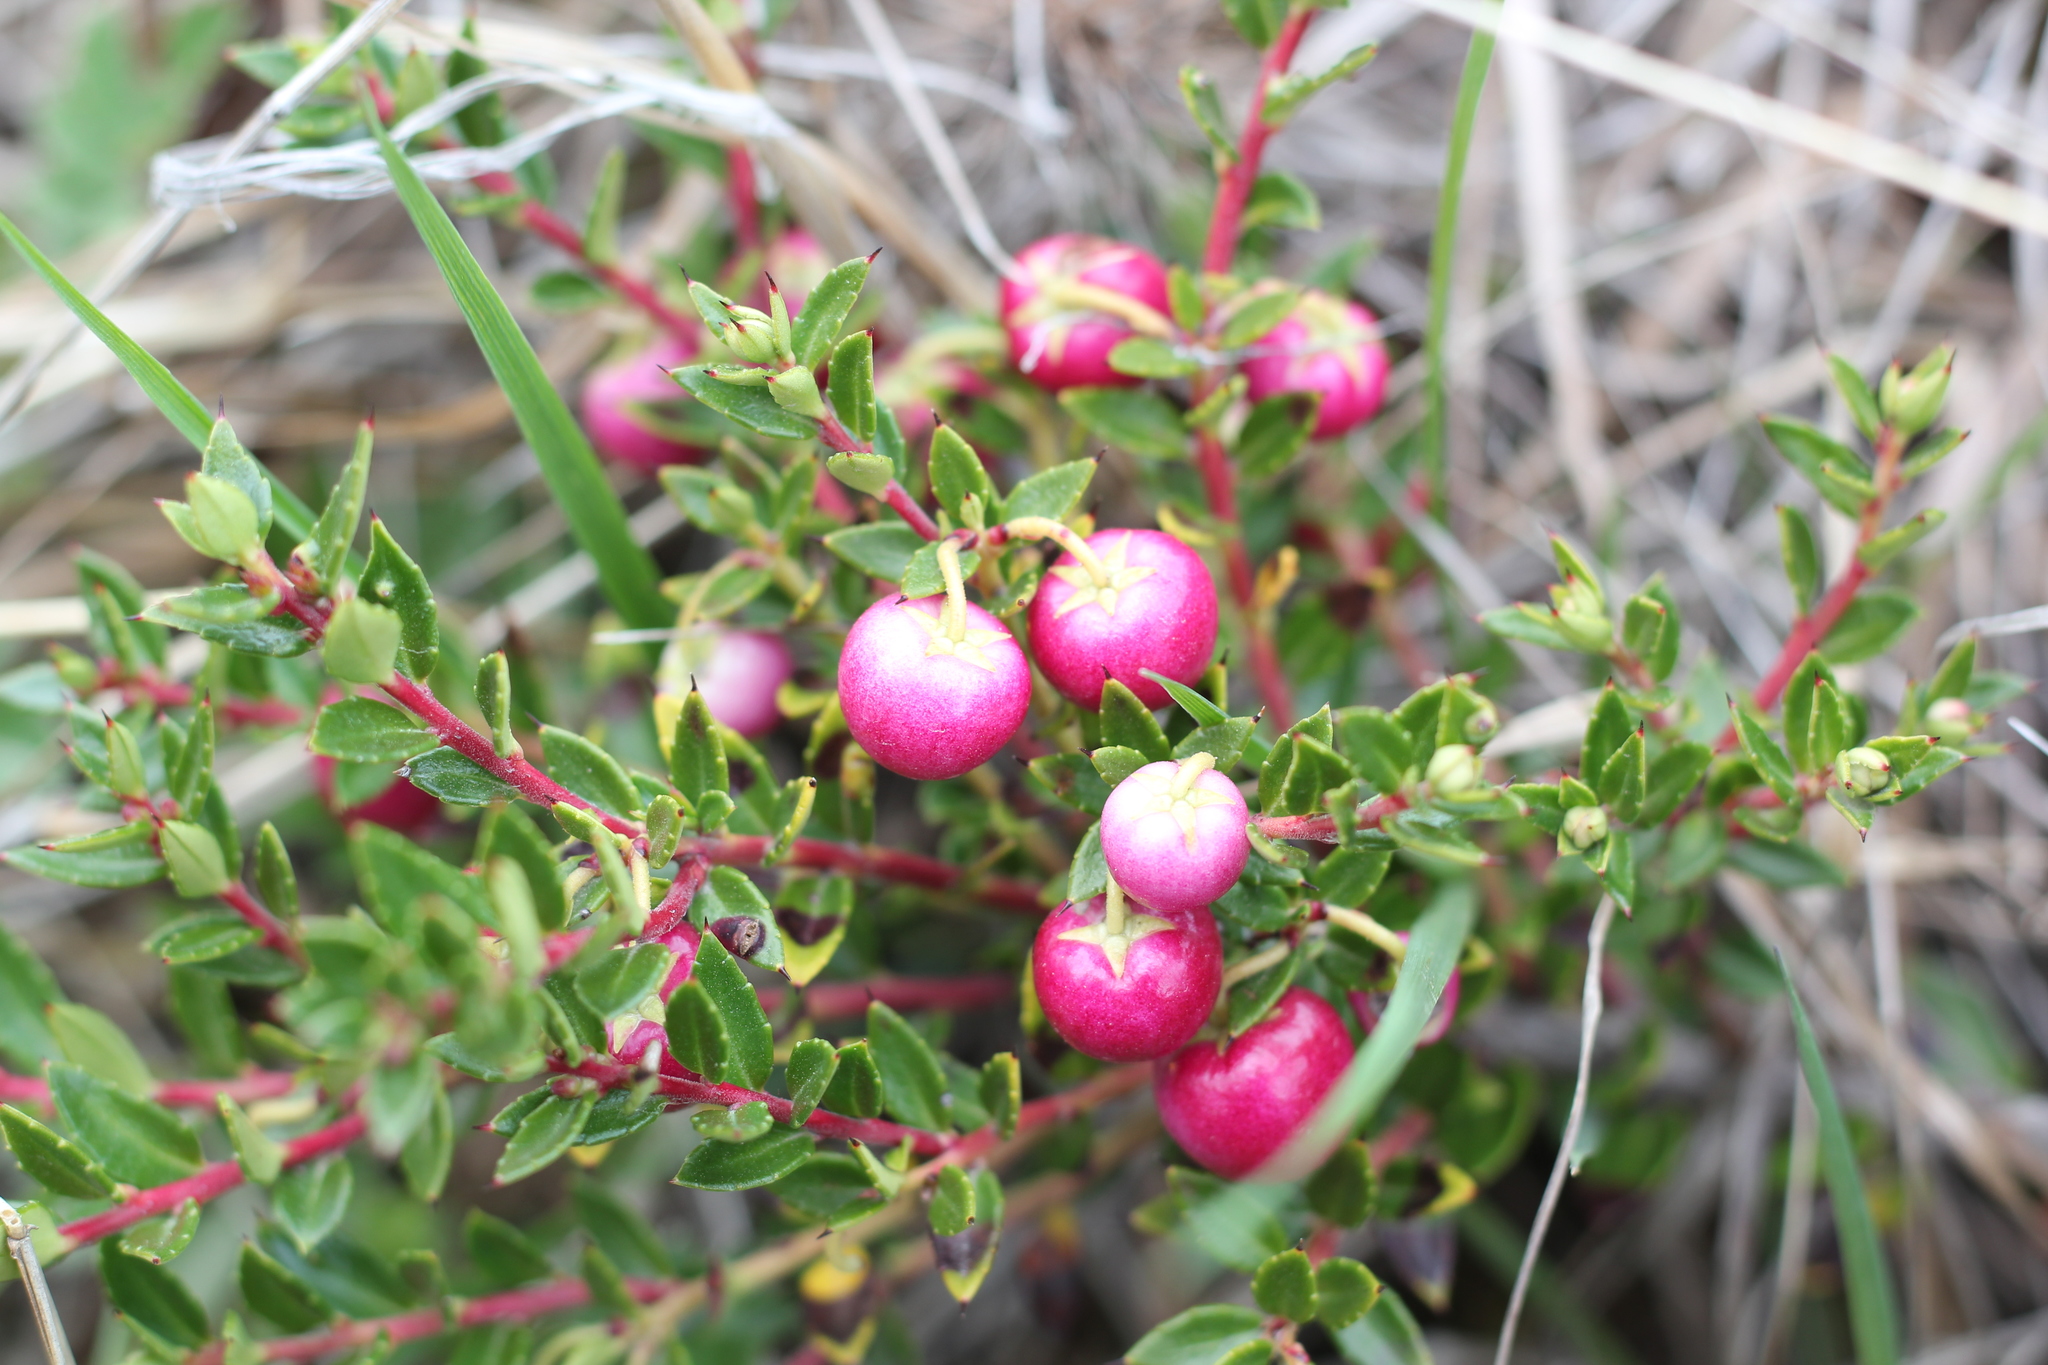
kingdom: Plantae
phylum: Tracheophyta
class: Magnoliopsida
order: Ericales
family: Ericaceae
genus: Gaultheria
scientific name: Gaultheria mucronata
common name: Prickly heath
